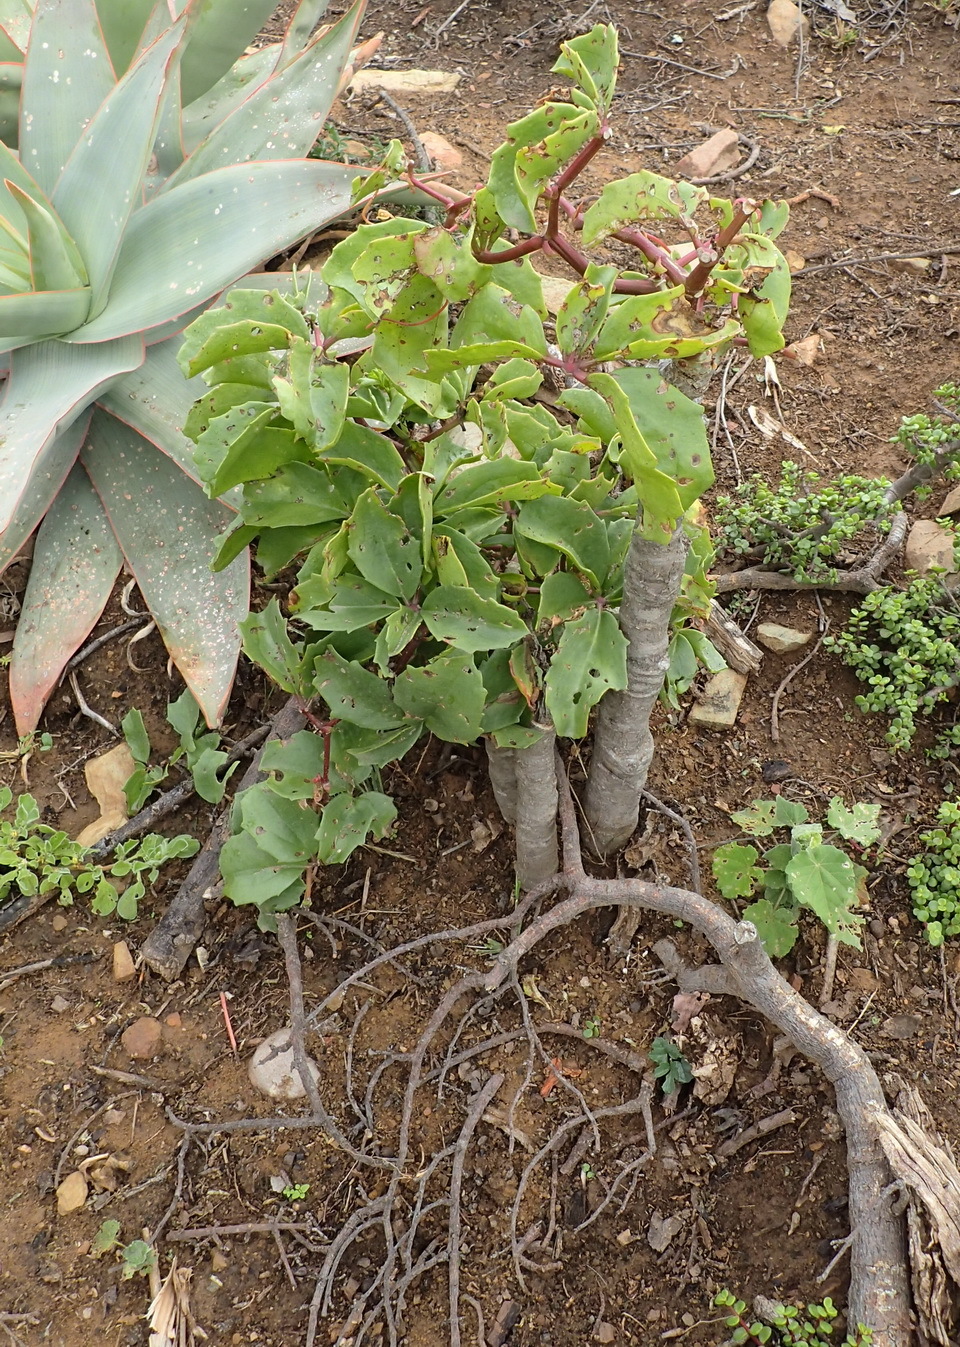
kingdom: Plantae
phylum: Tracheophyta
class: Magnoliopsida
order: Vitales
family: Vitaceae
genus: Cyphostemma
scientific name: Cyphostemma quinatum
